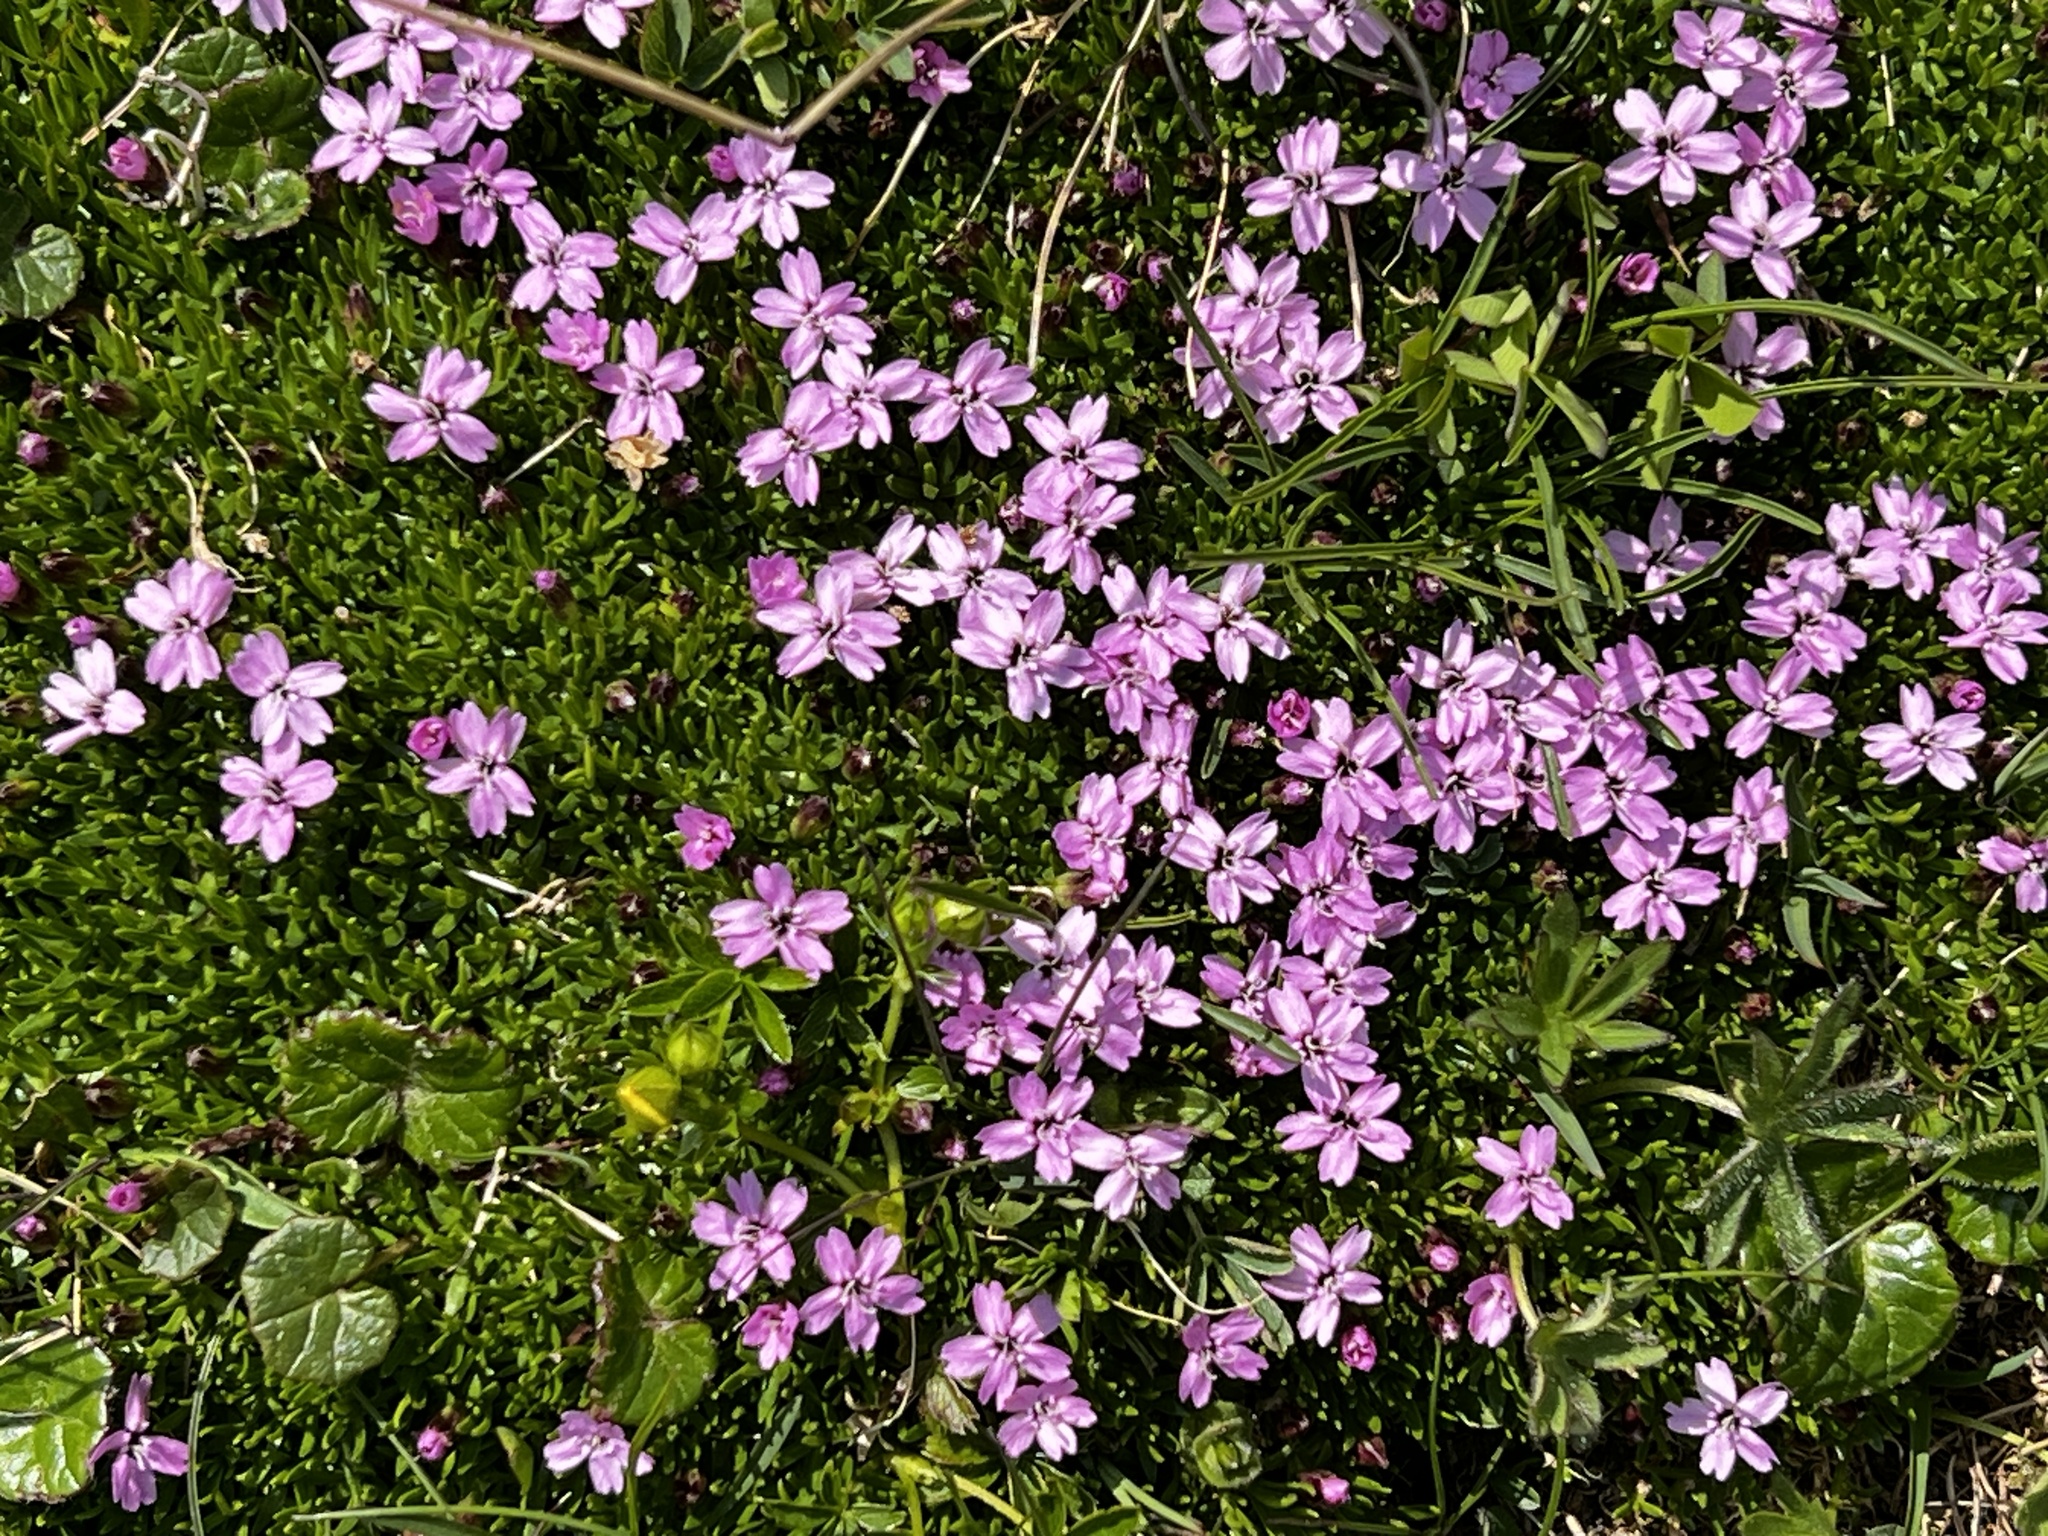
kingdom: Plantae
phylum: Tracheophyta
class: Magnoliopsida
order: Caryophyllales
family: Caryophyllaceae
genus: Silene
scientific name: Silene acaulis
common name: Moss campion
